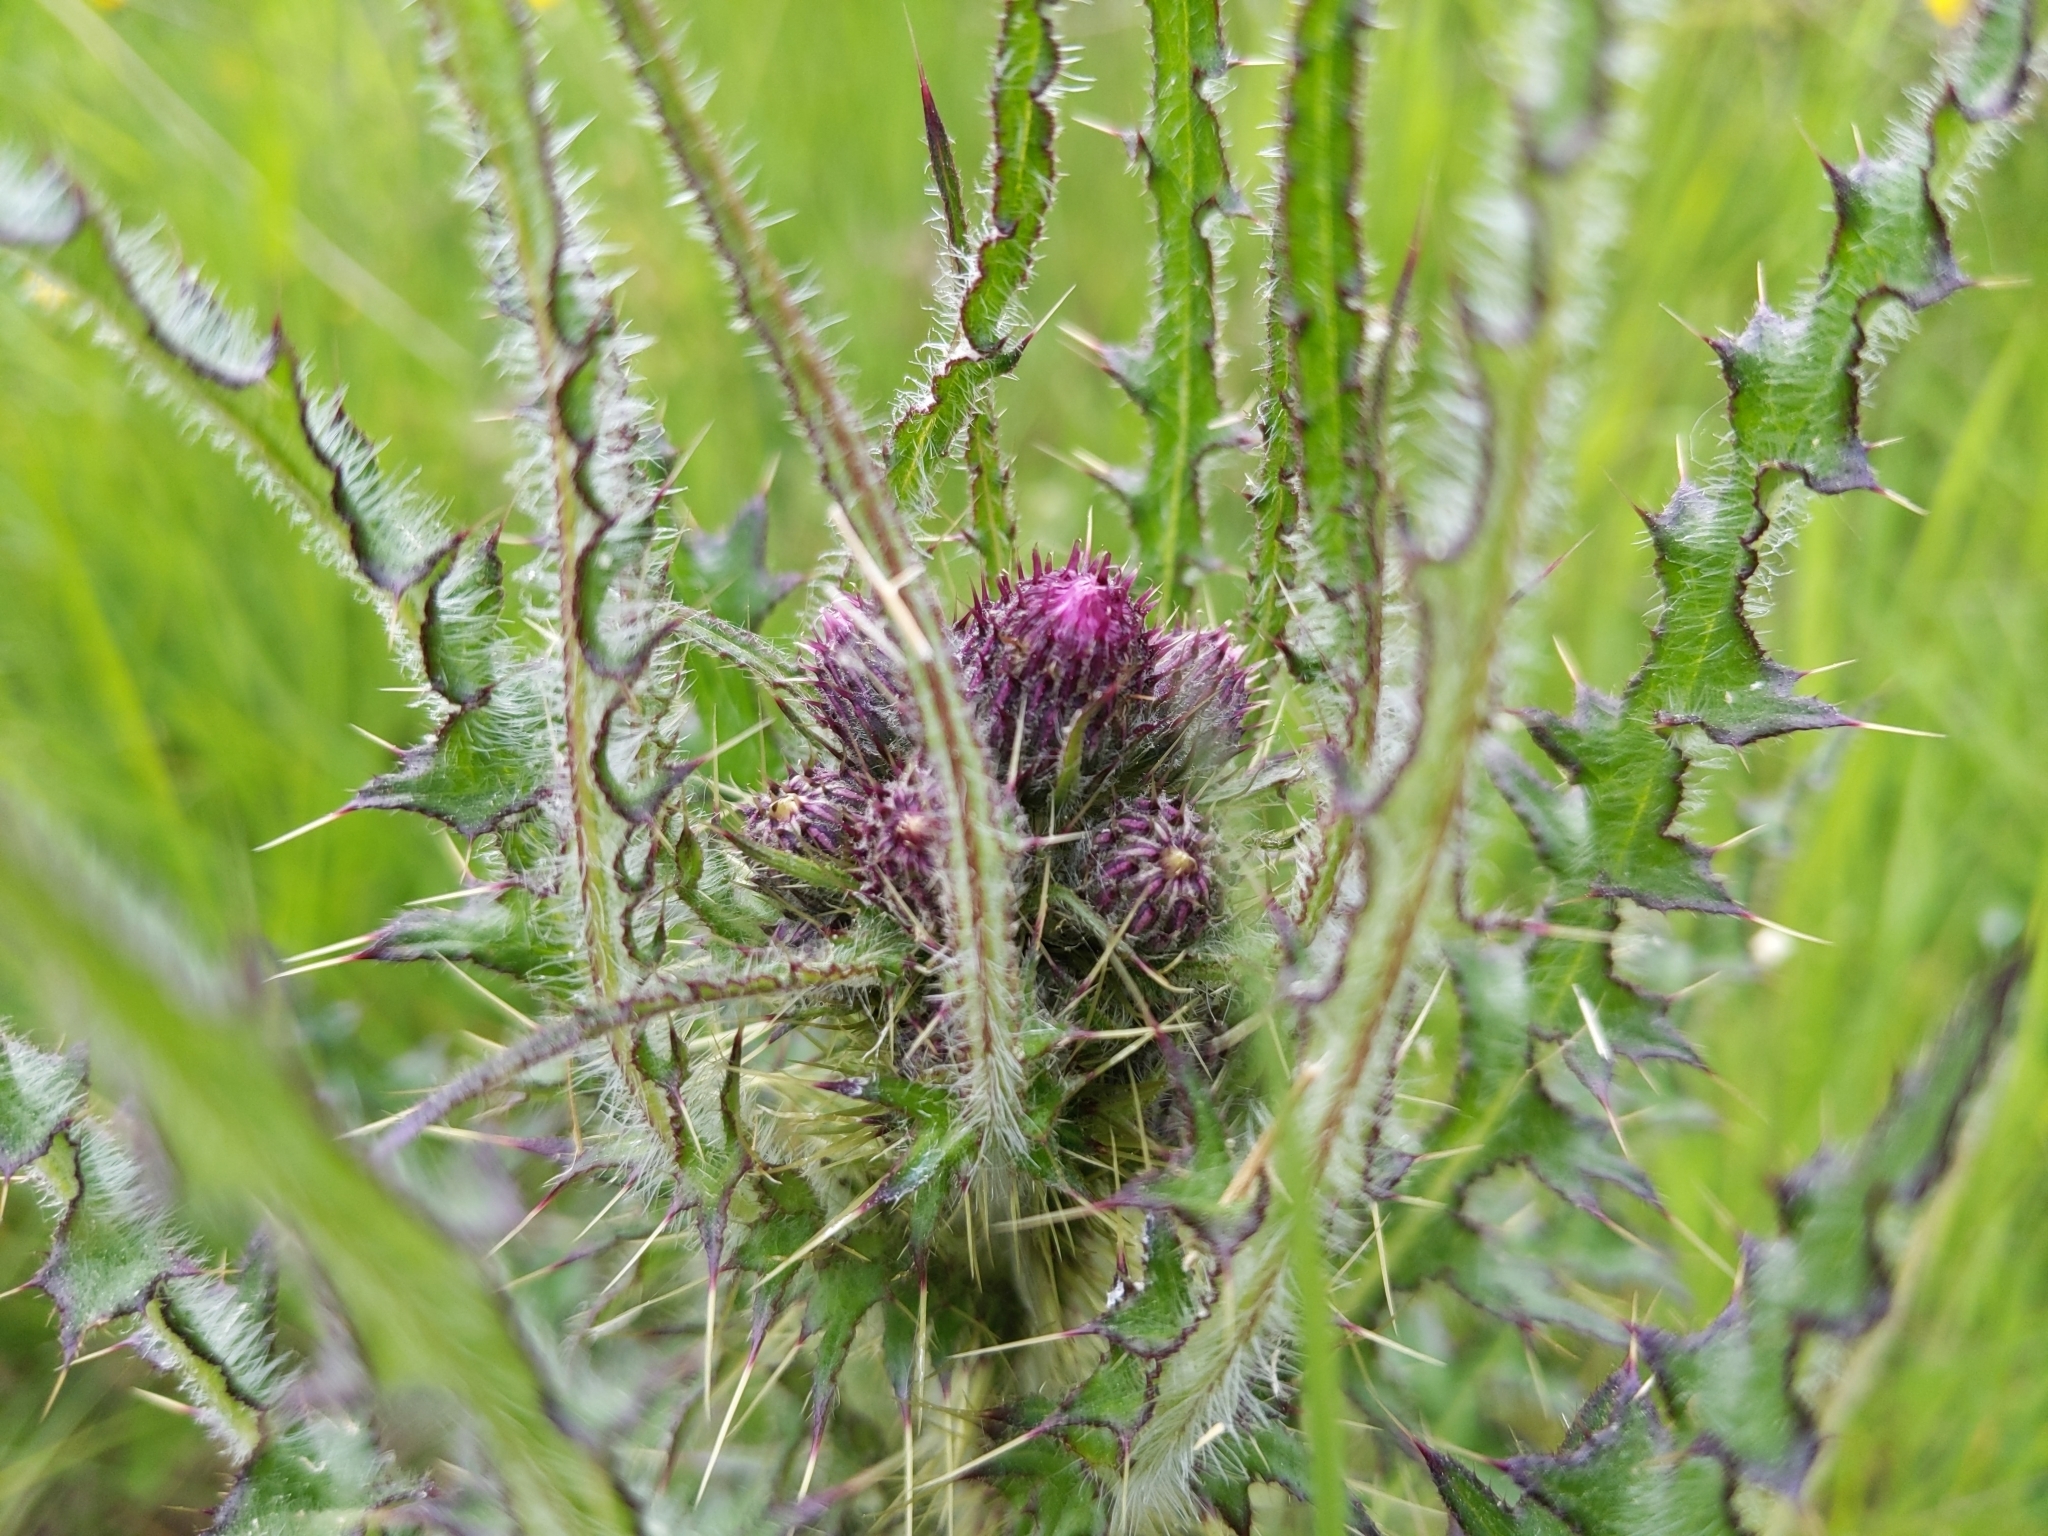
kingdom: Plantae
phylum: Tracheophyta
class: Magnoliopsida
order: Asterales
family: Asteraceae
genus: Cirsium
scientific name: Cirsium palustre
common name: Marsh thistle
